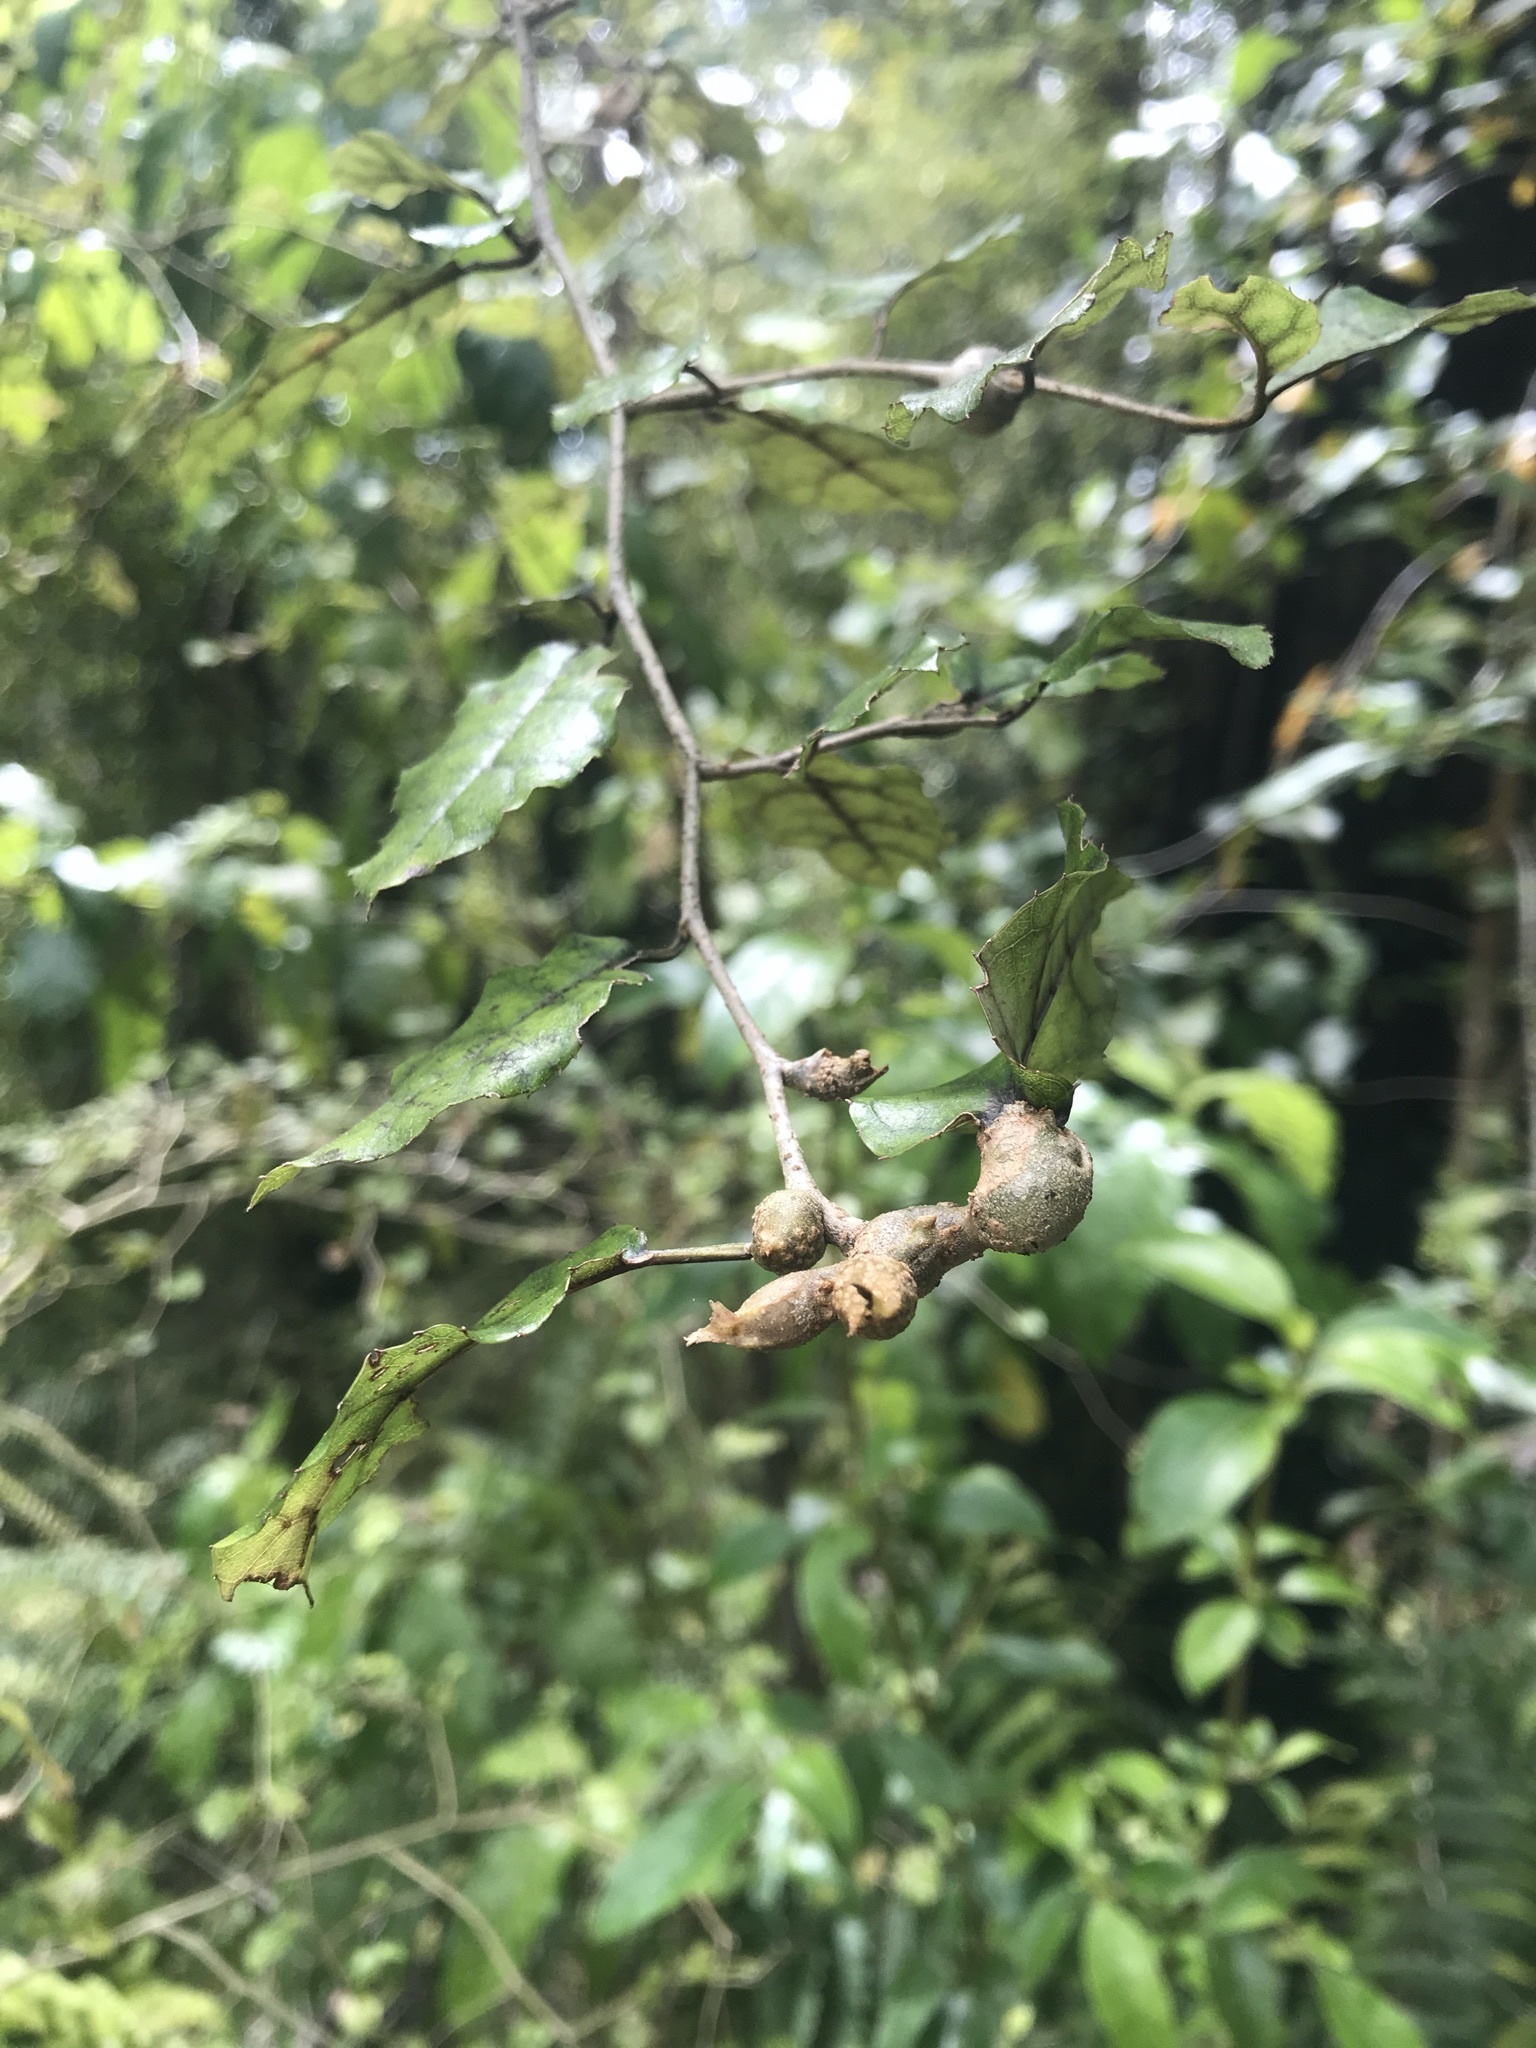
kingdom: Plantae
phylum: Tracheophyta
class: Magnoliopsida
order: Asterales
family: Rousseaceae
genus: Carpodetus
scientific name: Carpodetus serratus
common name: White mapau
